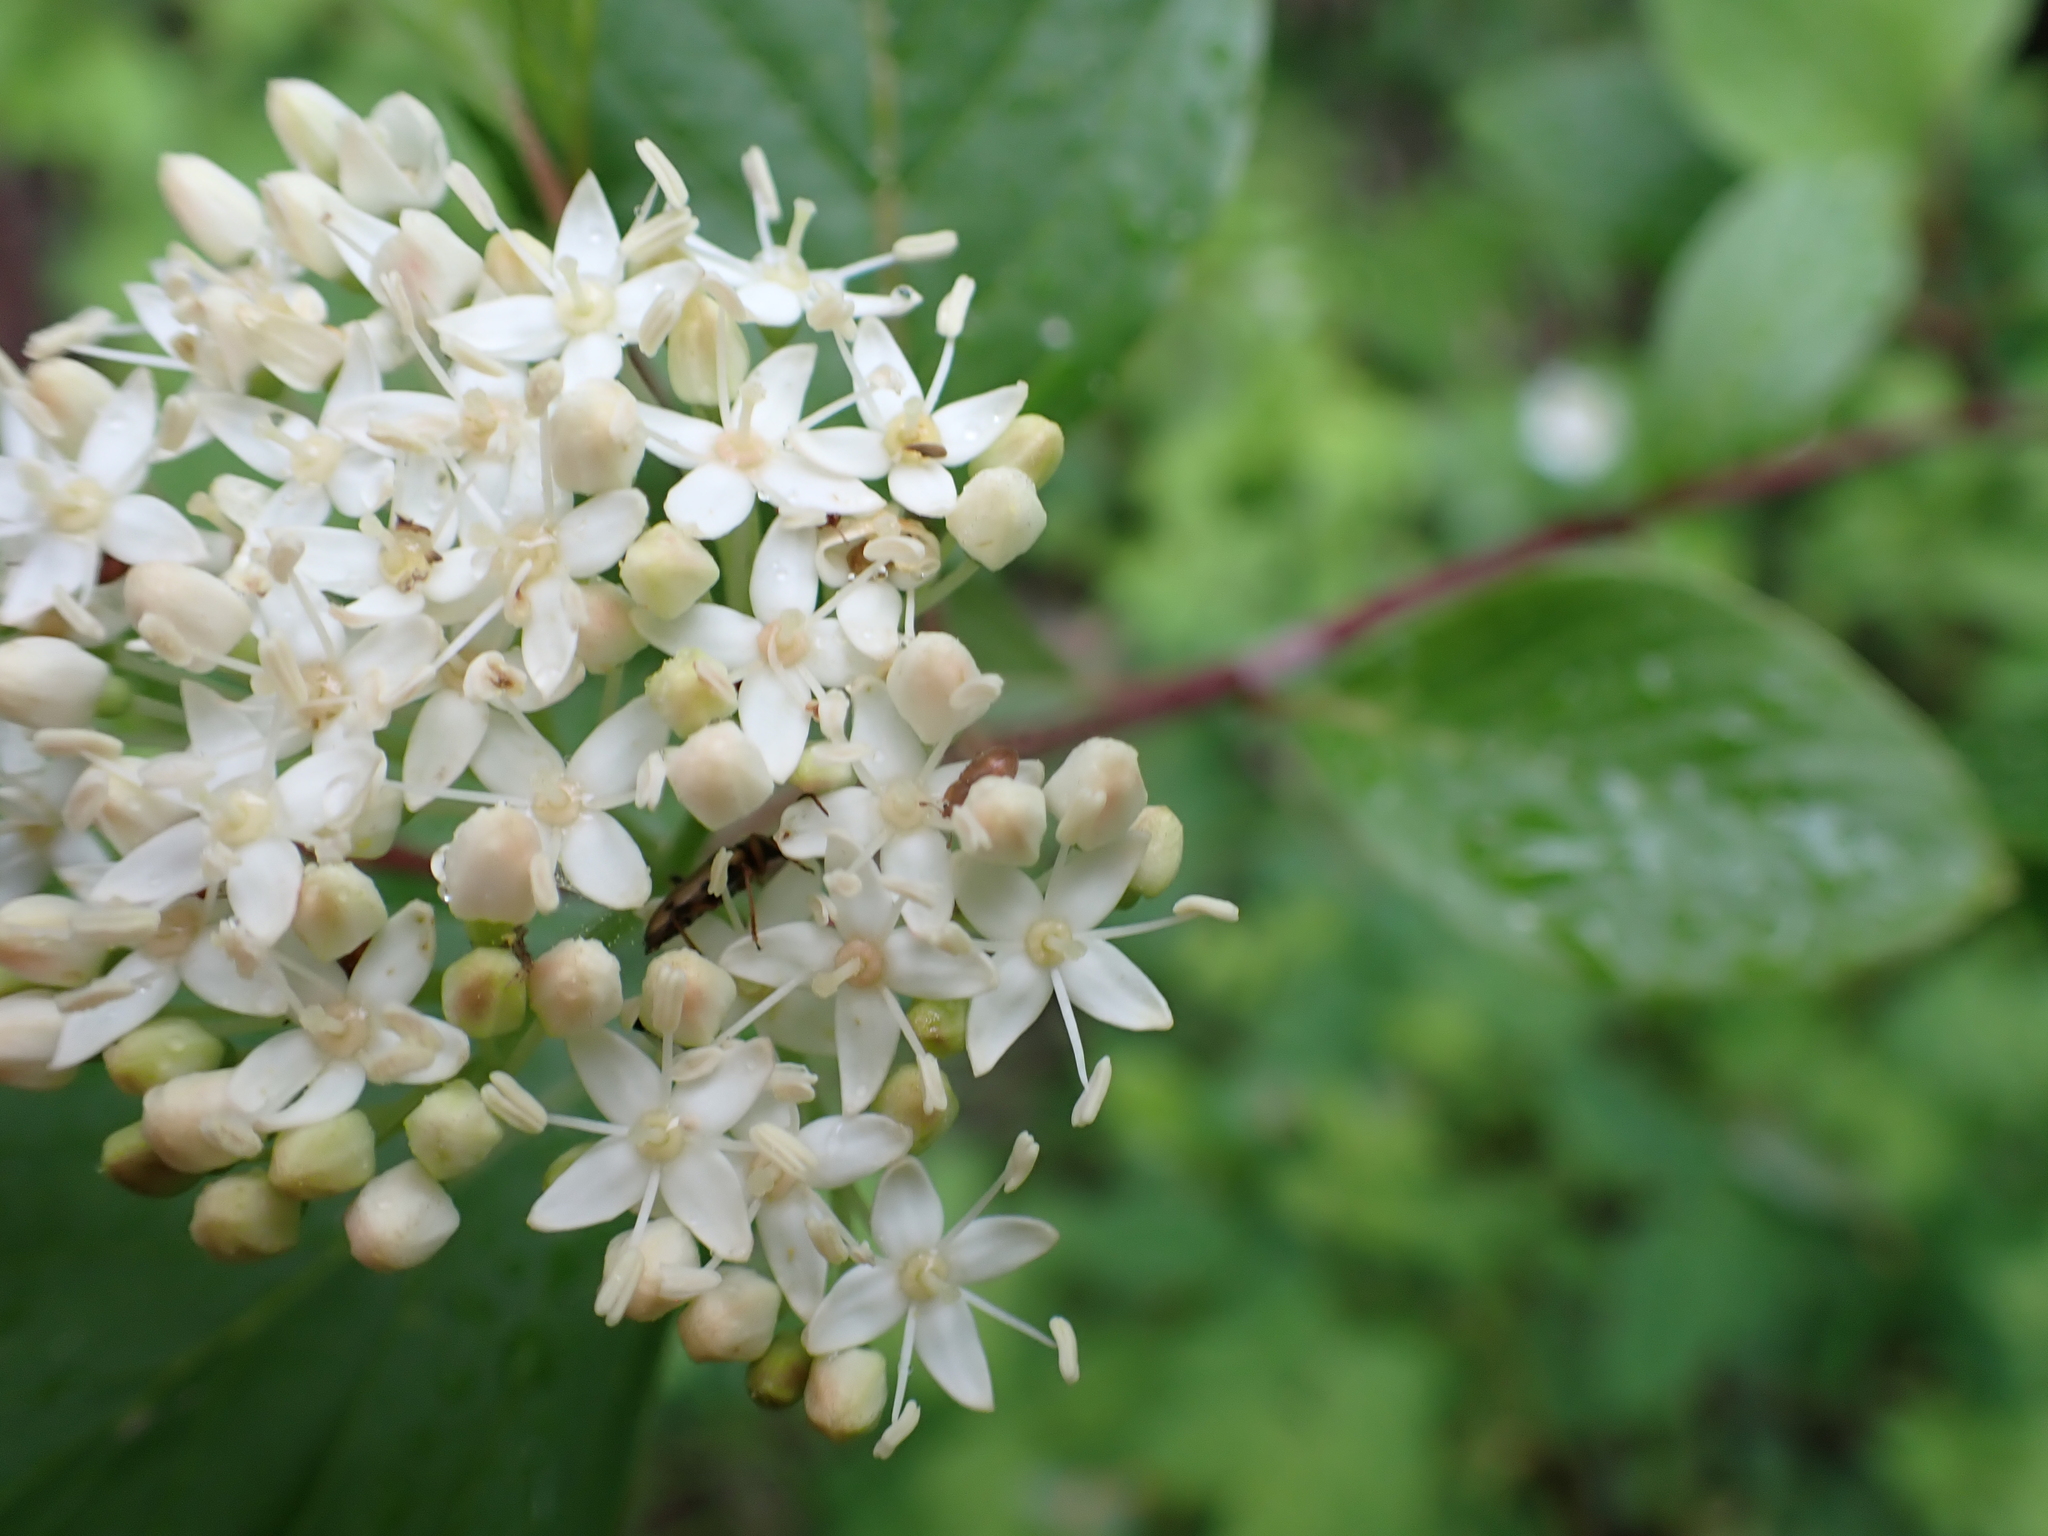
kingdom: Plantae
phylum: Tracheophyta
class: Magnoliopsida
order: Cornales
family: Cornaceae
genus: Cornus
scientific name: Cornus sericea
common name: Red-osier dogwood
